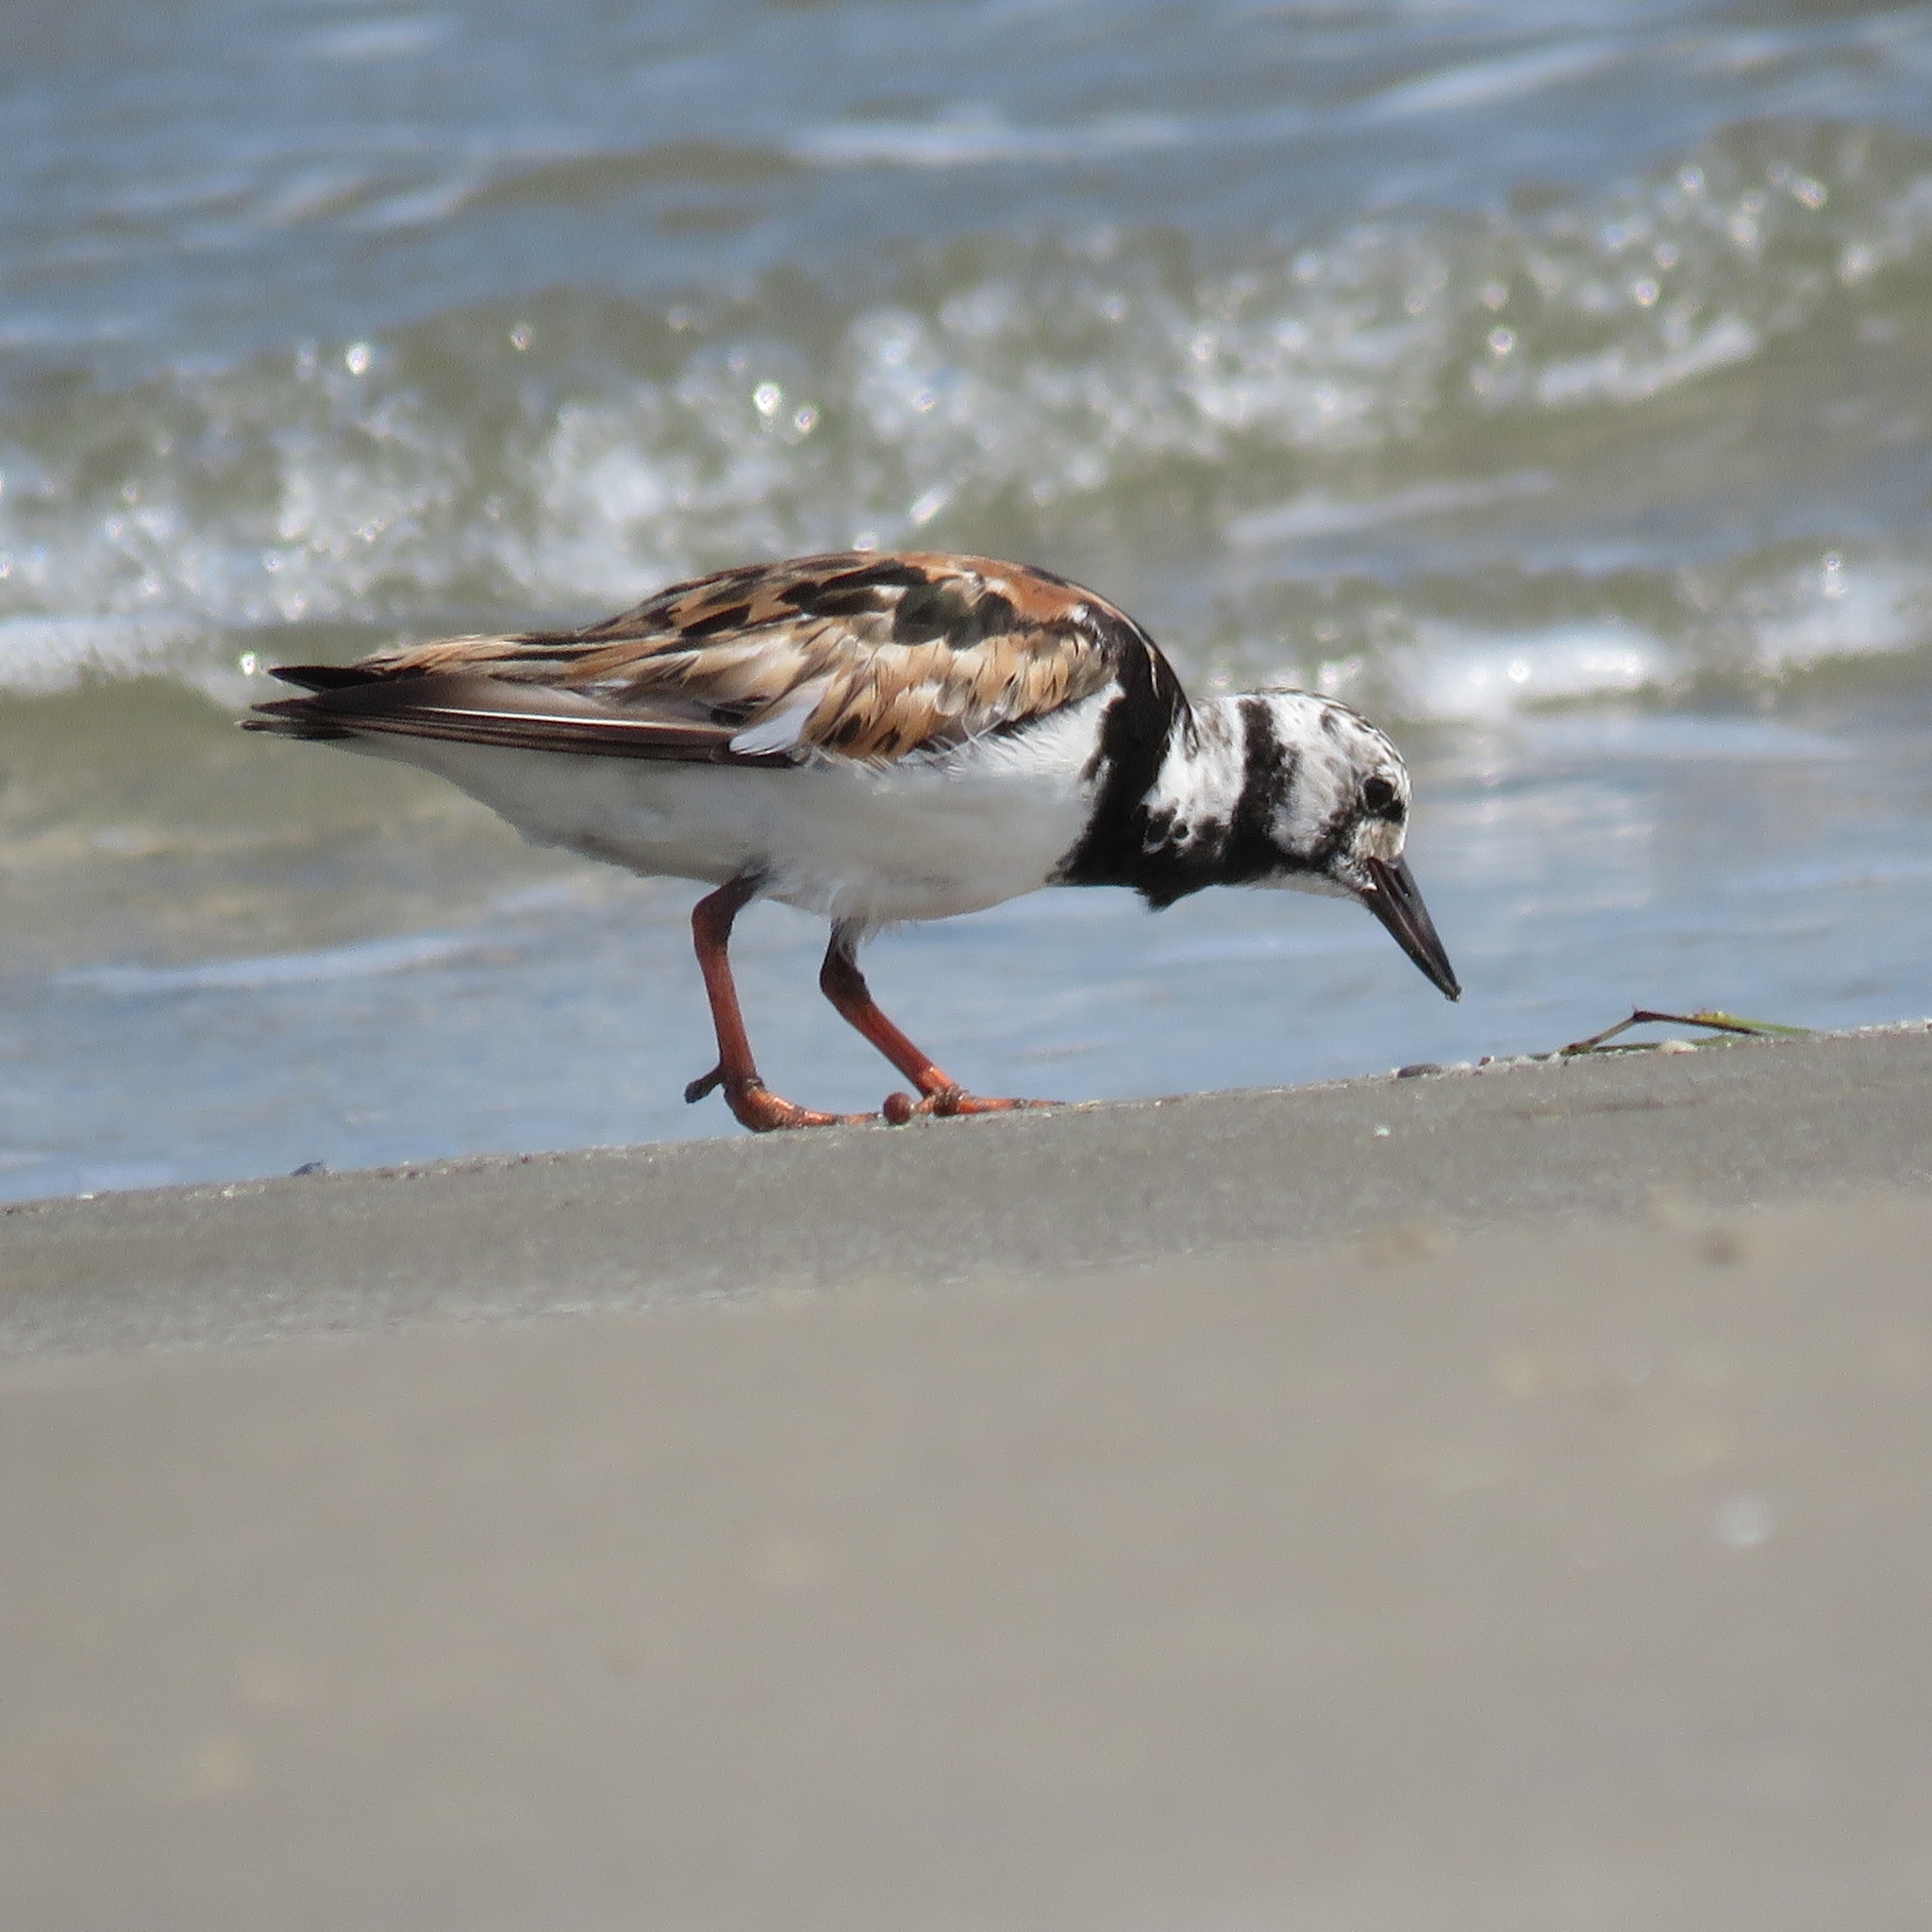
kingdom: Animalia
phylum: Chordata
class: Aves
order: Charadriiformes
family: Scolopacidae
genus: Arenaria
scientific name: Arenaria interpres
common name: Ruddy turnstone
